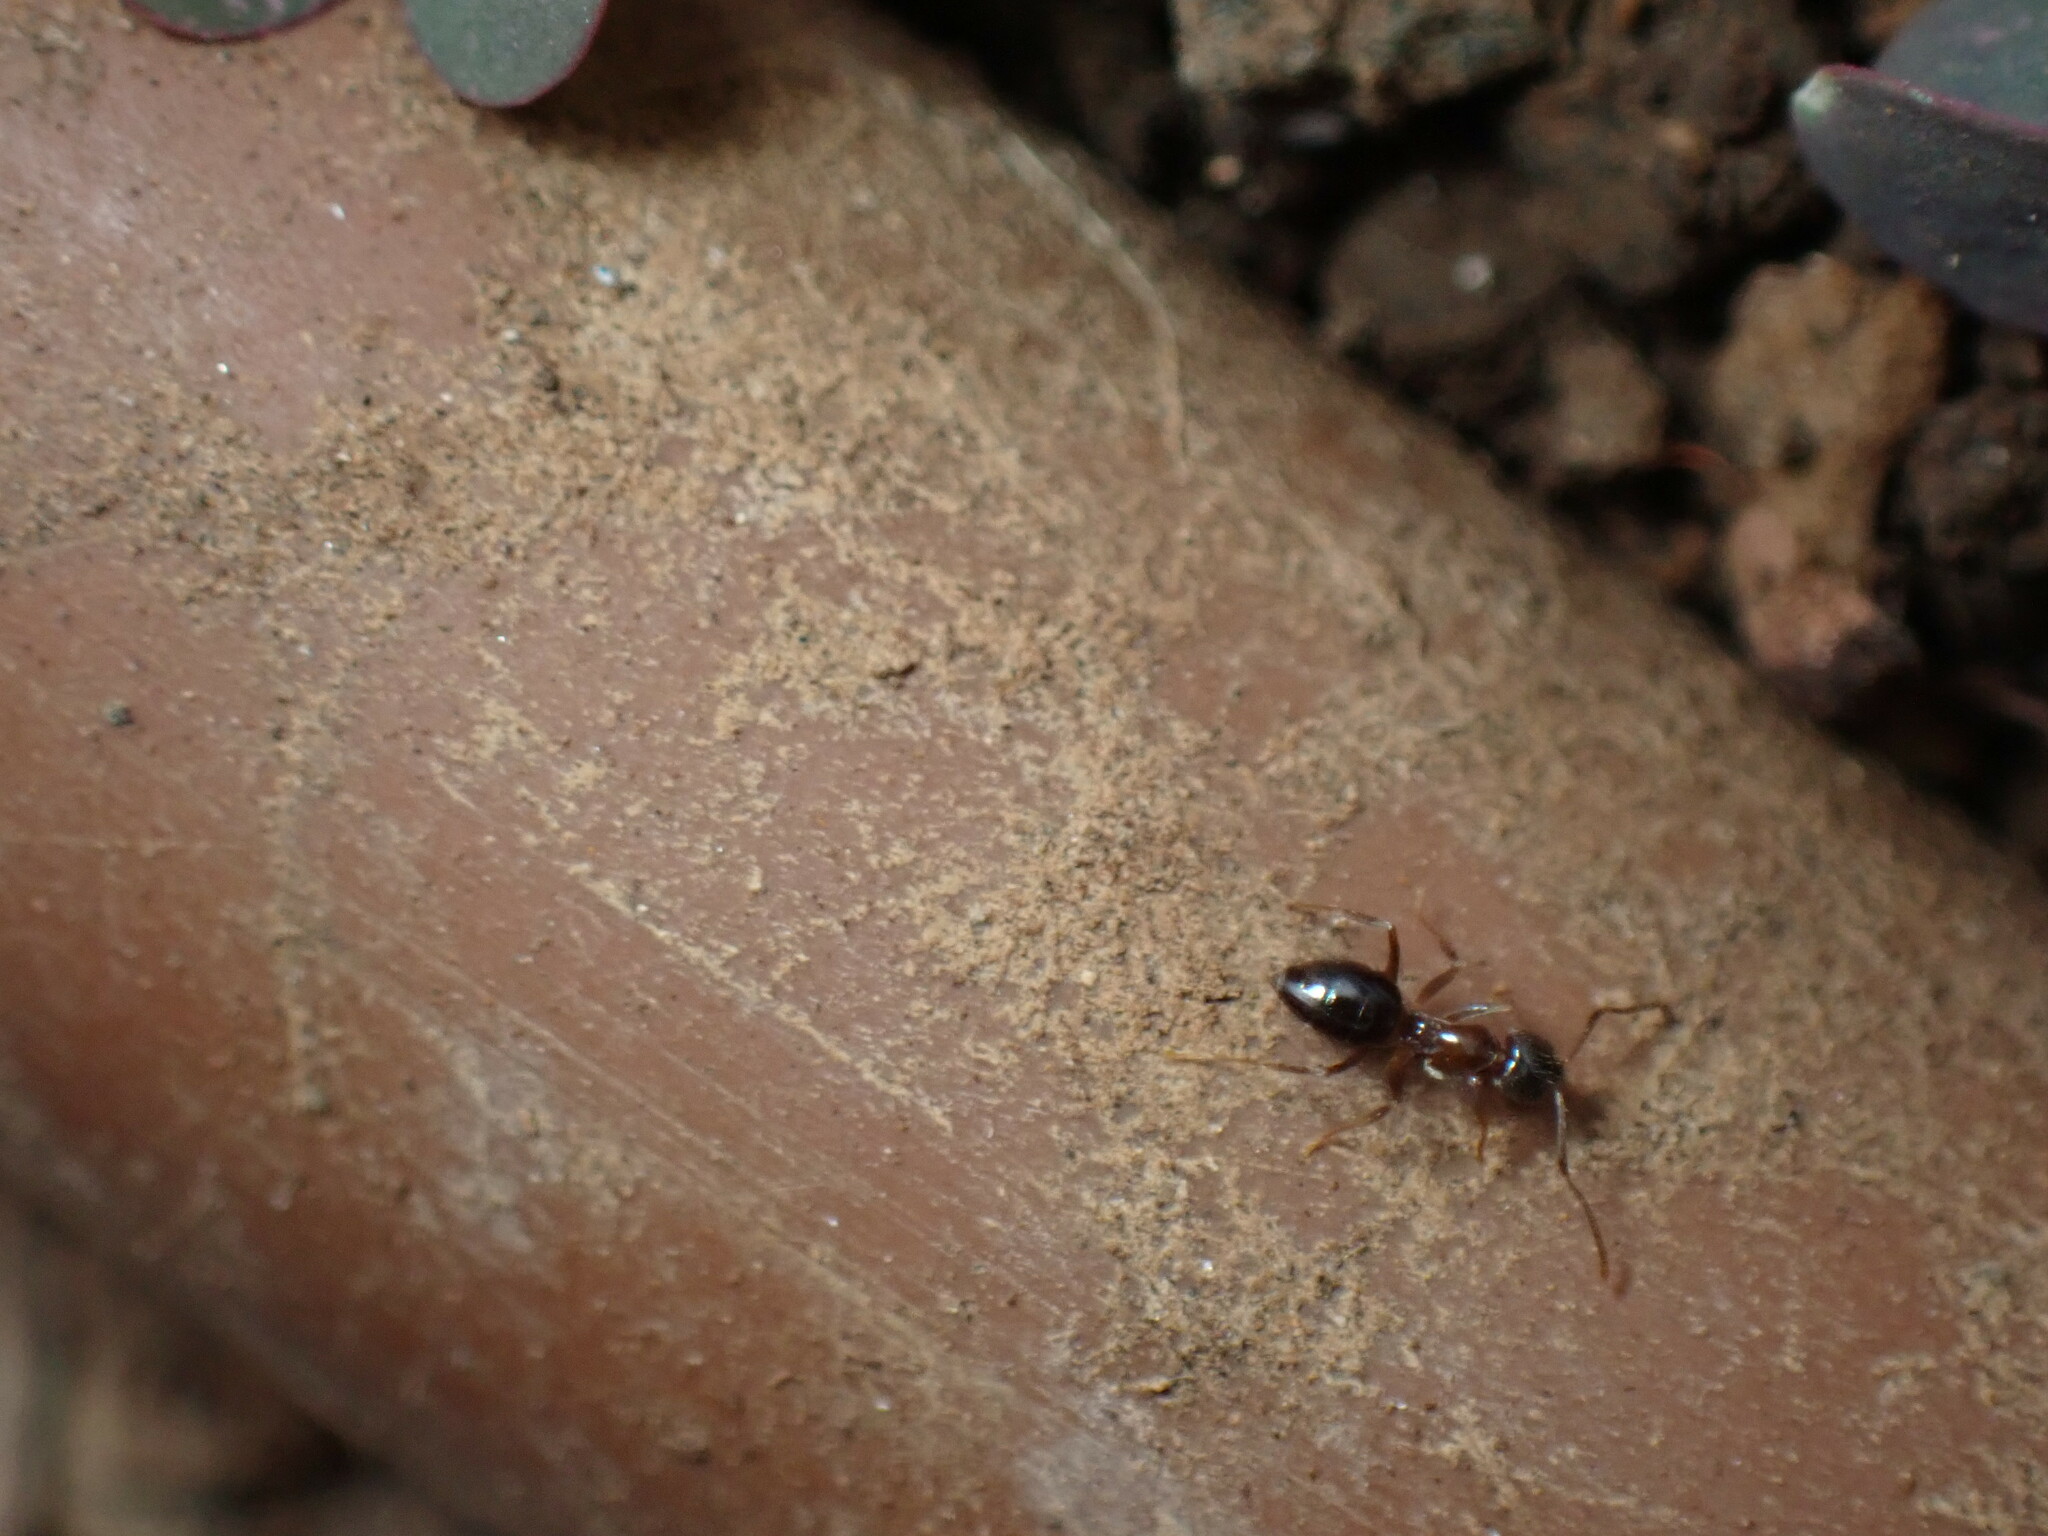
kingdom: Animalia
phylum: Arthropoda
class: Insecta
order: Hymenoptera
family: Formicidae
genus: Paratrechina
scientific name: Paratrechina jaegerskioeldi
